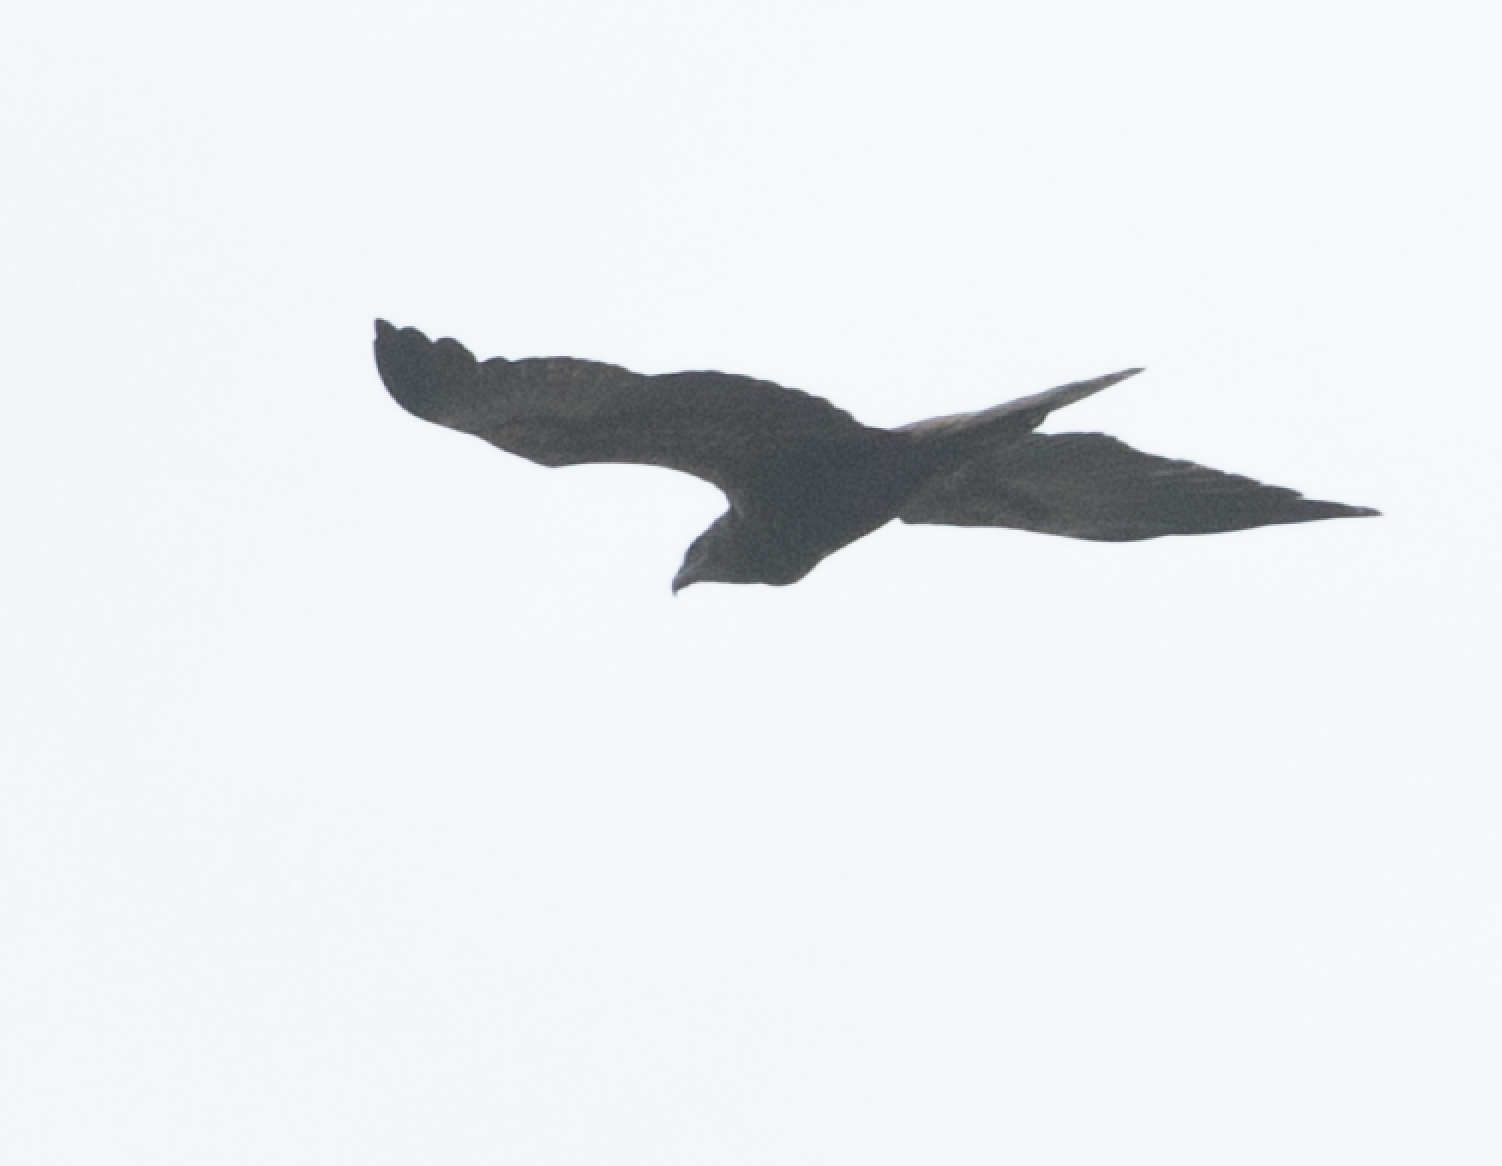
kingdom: Animalia
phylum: Chordata
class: Aves
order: Accipitriformes
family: Accipitridae
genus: Circus
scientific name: Circus aeruginosus
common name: Western marsh harrier
